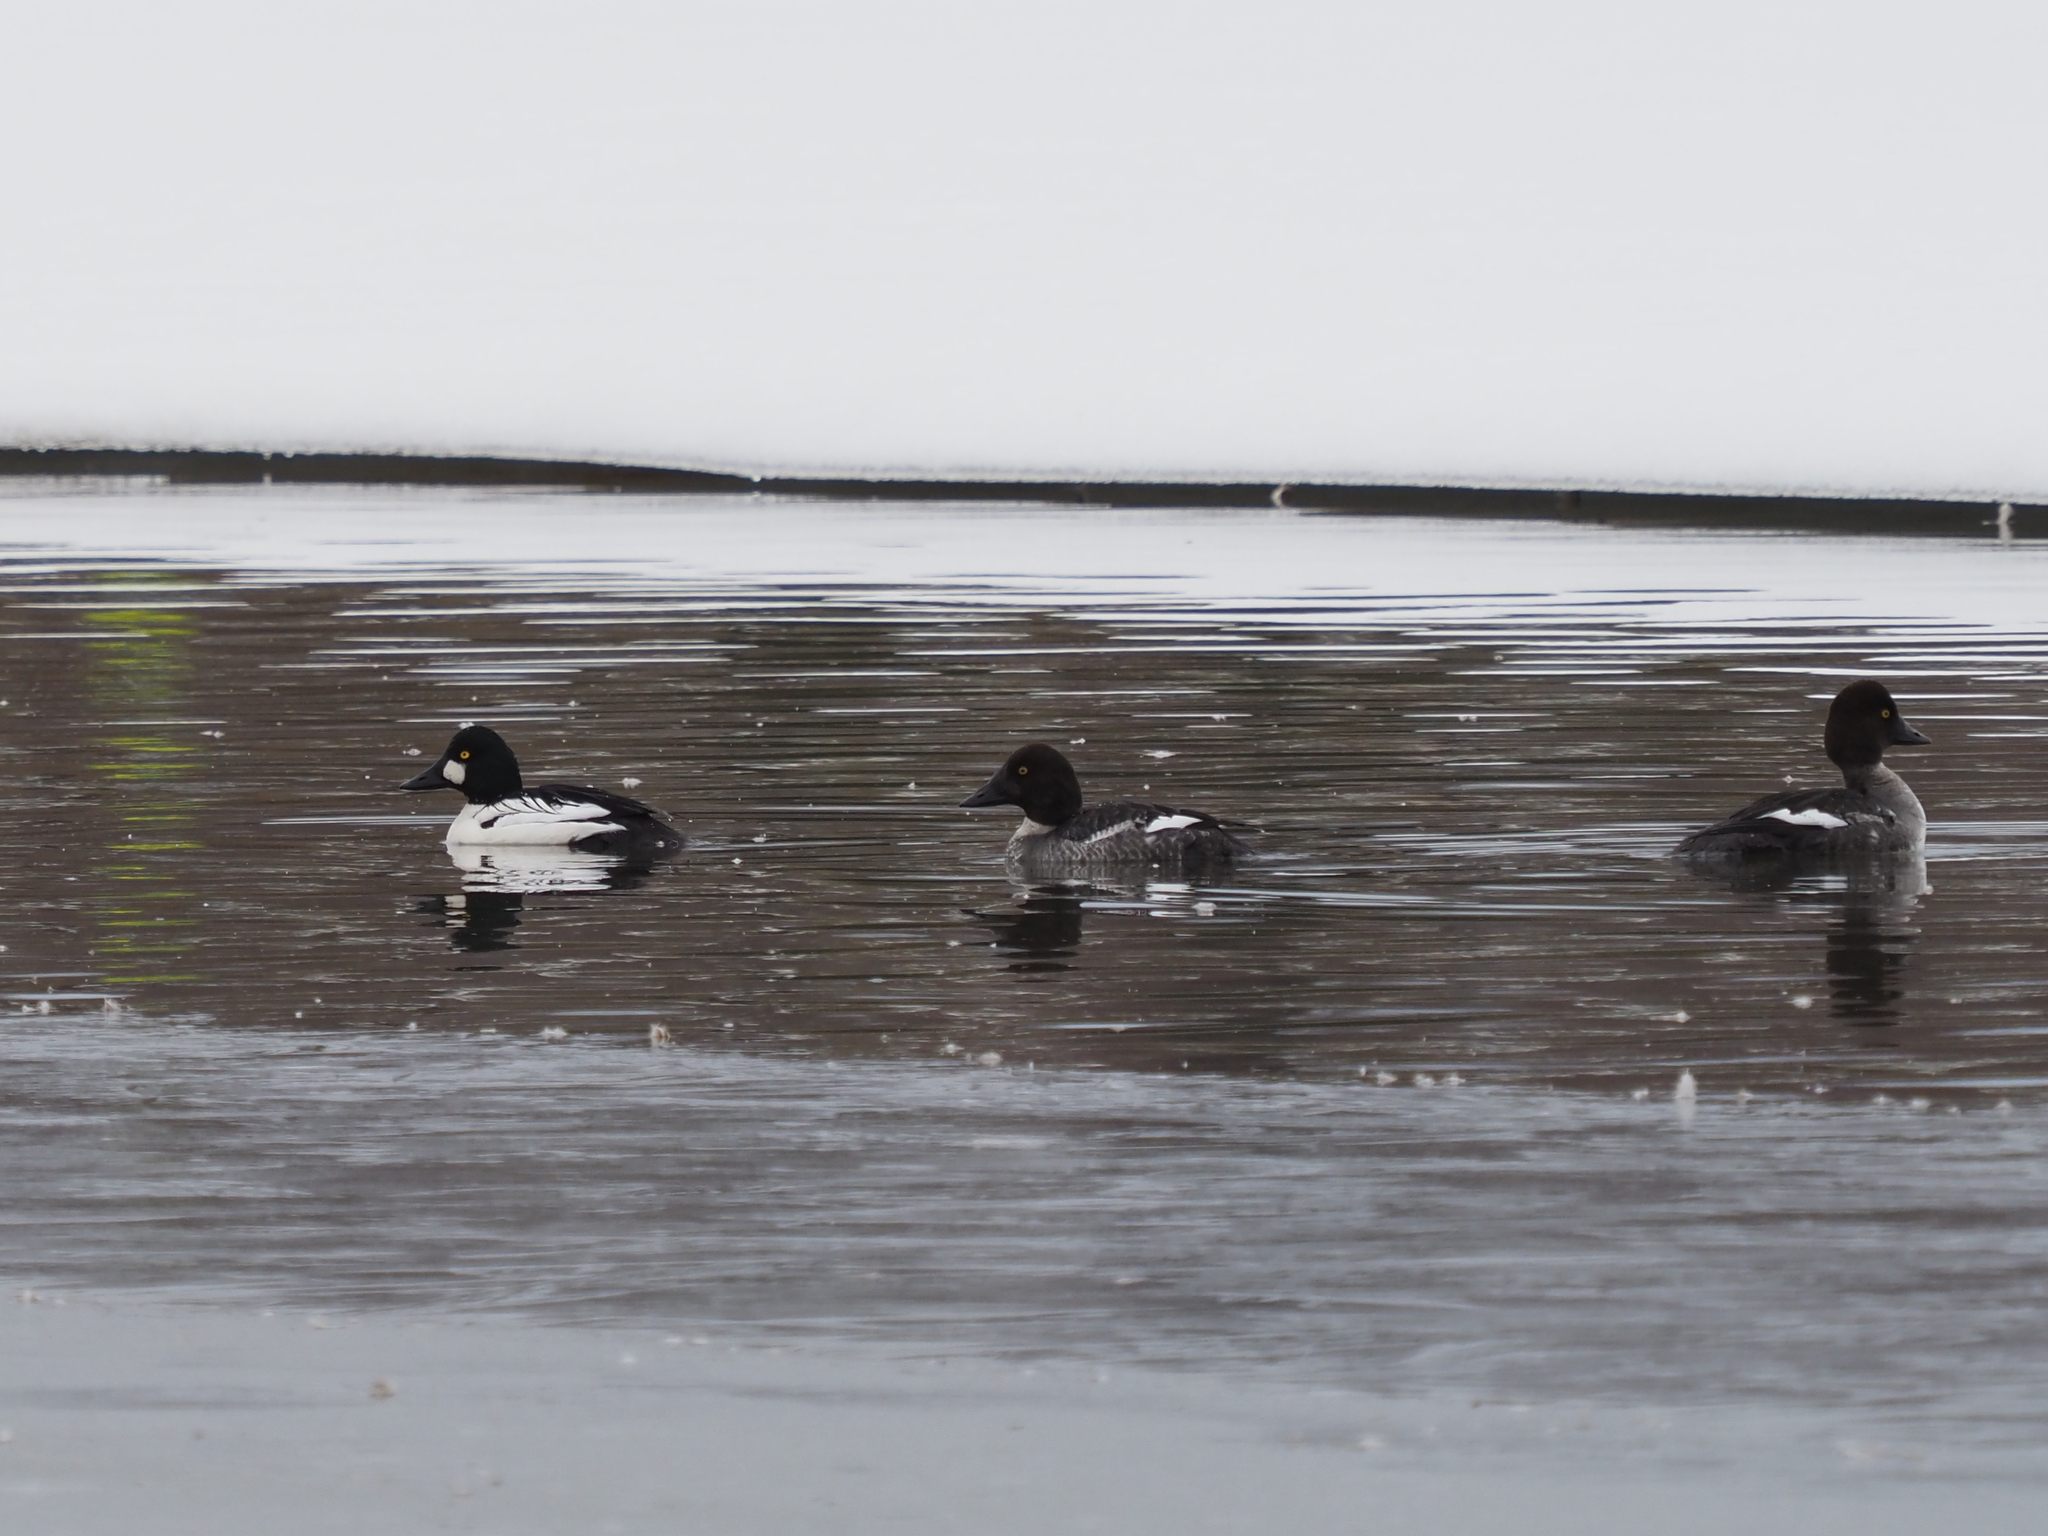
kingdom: Animalia
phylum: Chordata
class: Aves
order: Anseriformes
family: Anatidae
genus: Bucephala
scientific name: Bucephala clangula
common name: Common goldeneye
